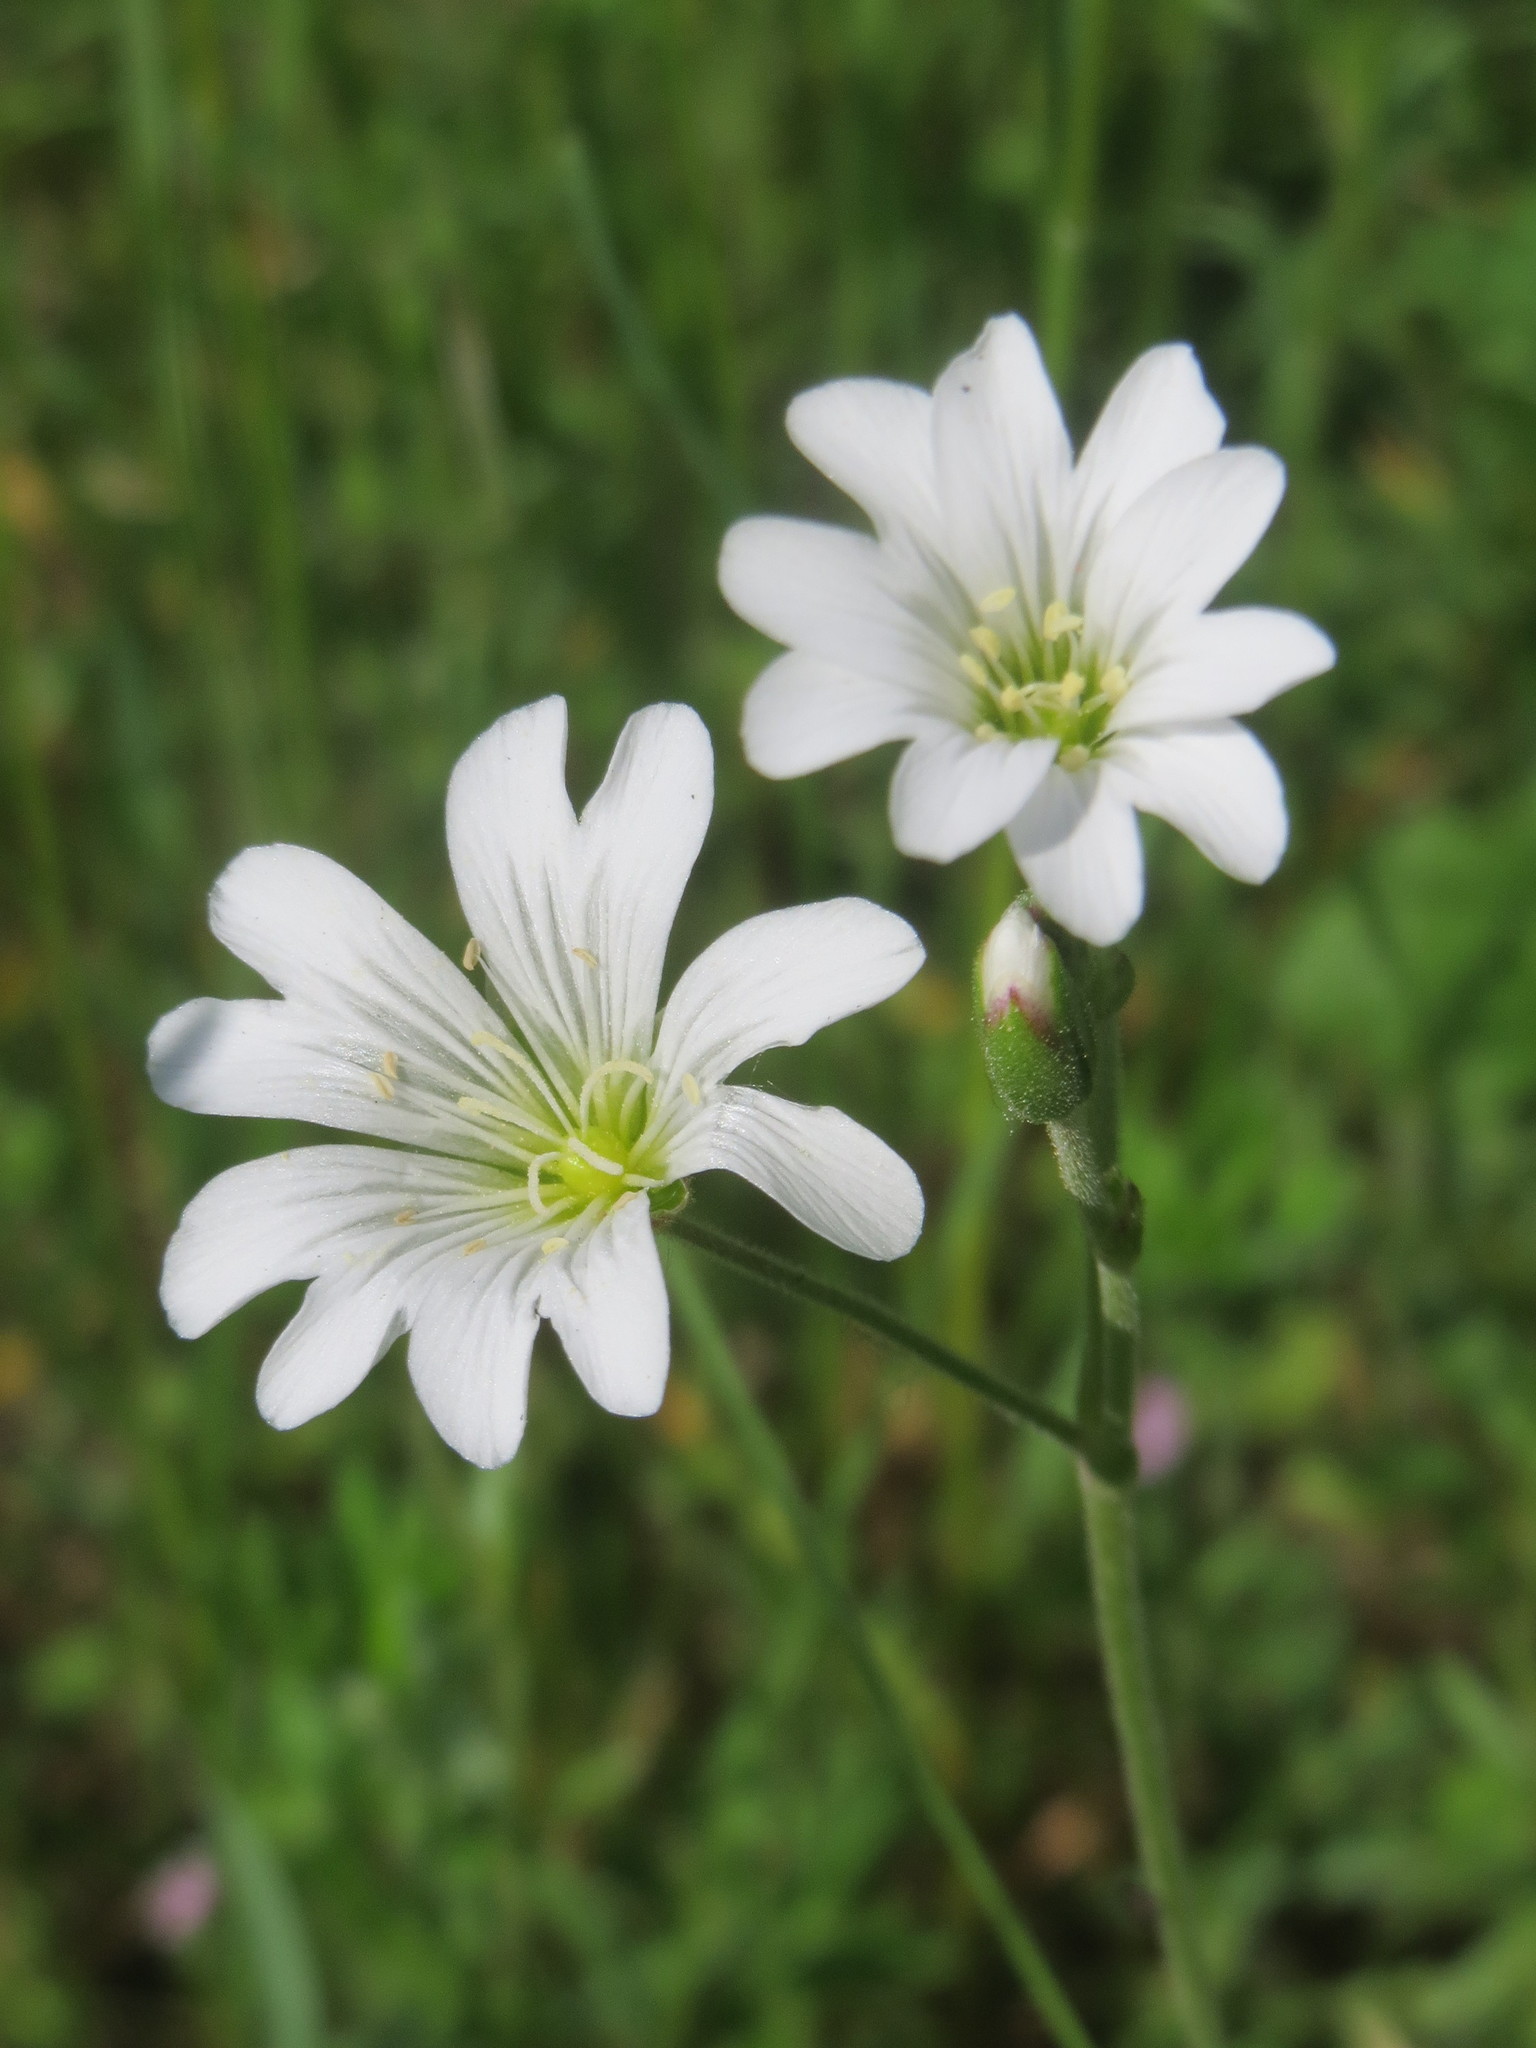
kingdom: Plantae
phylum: Tracheophyta
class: Magnoliopsida
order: Caryophyllales
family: Caryophyllaceae
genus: Cerastium
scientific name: Cerastium arvense
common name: Field mouse-ear
